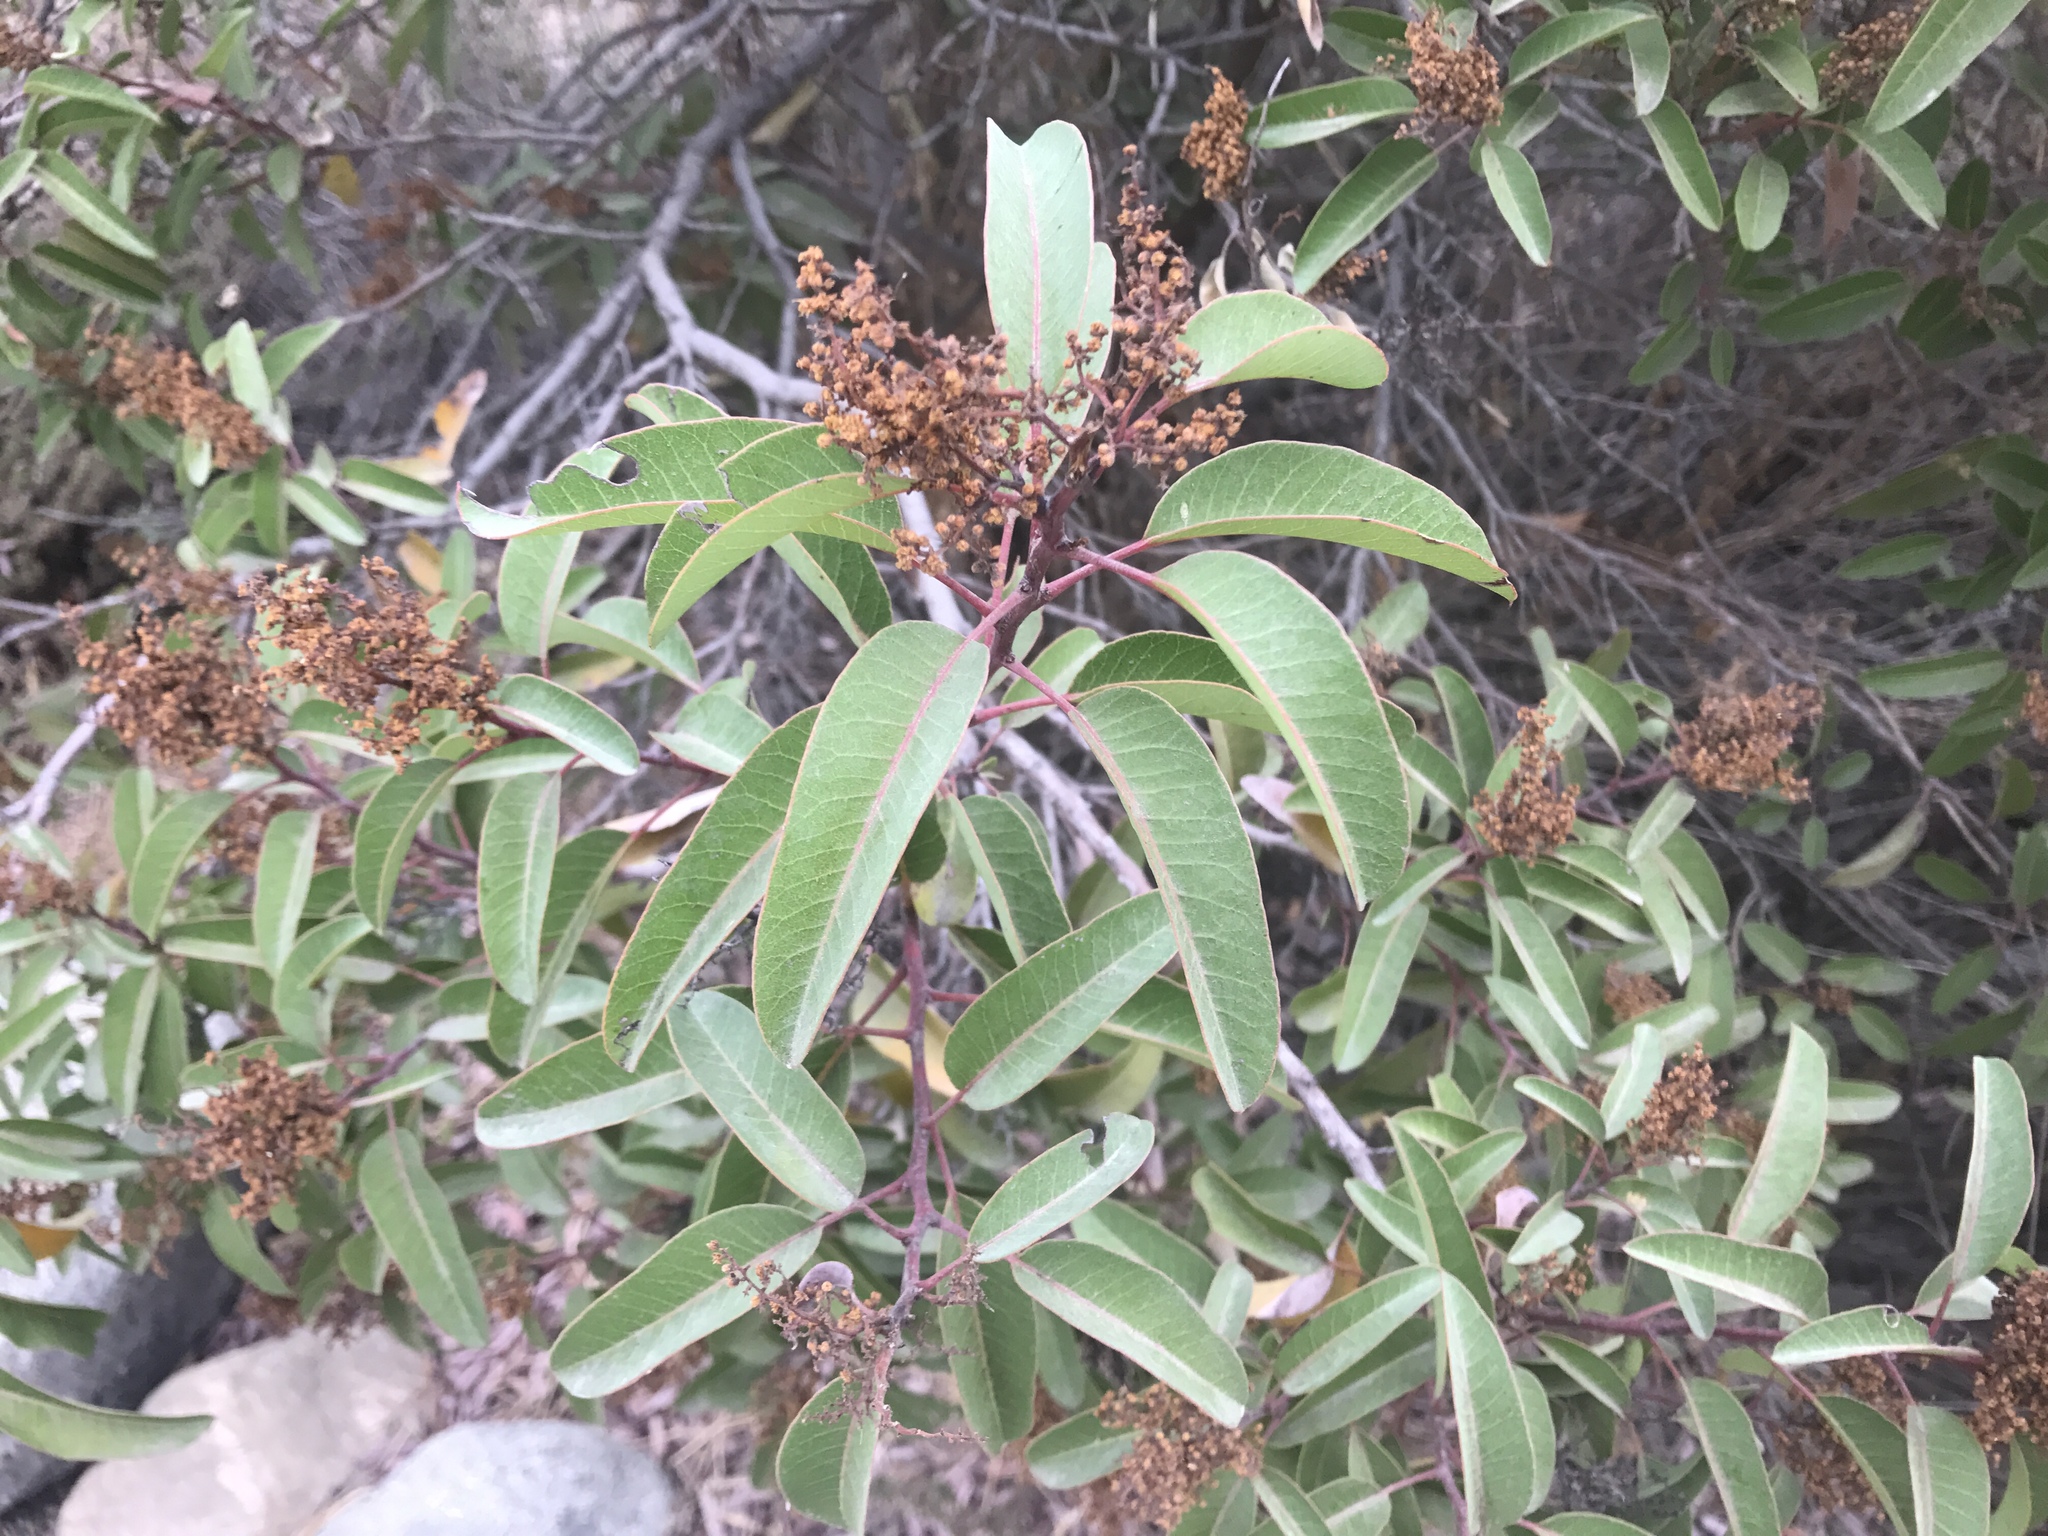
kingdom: Plantae
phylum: Tracheophyta
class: Magnoliopsida
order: Sapindales
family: Anacardiaceae
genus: Malosma
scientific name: Malosma laurina
